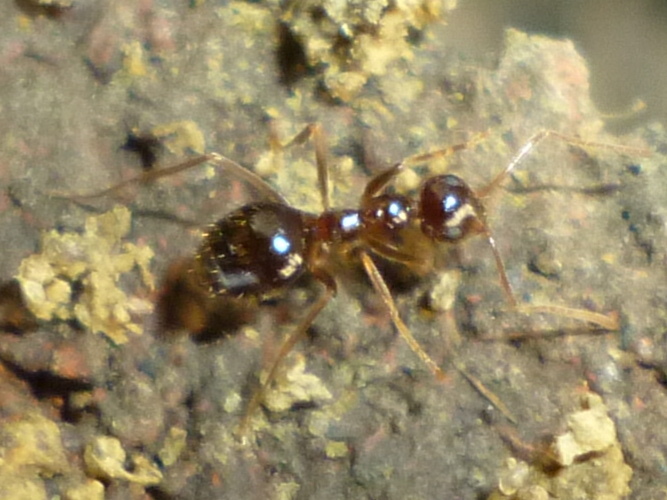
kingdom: Animalia
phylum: Arthropoda
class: Insecta
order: Hymenoptera
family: Formicidae
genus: Prenolepis
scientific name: Prenolepis imparis
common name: Small honey ant
